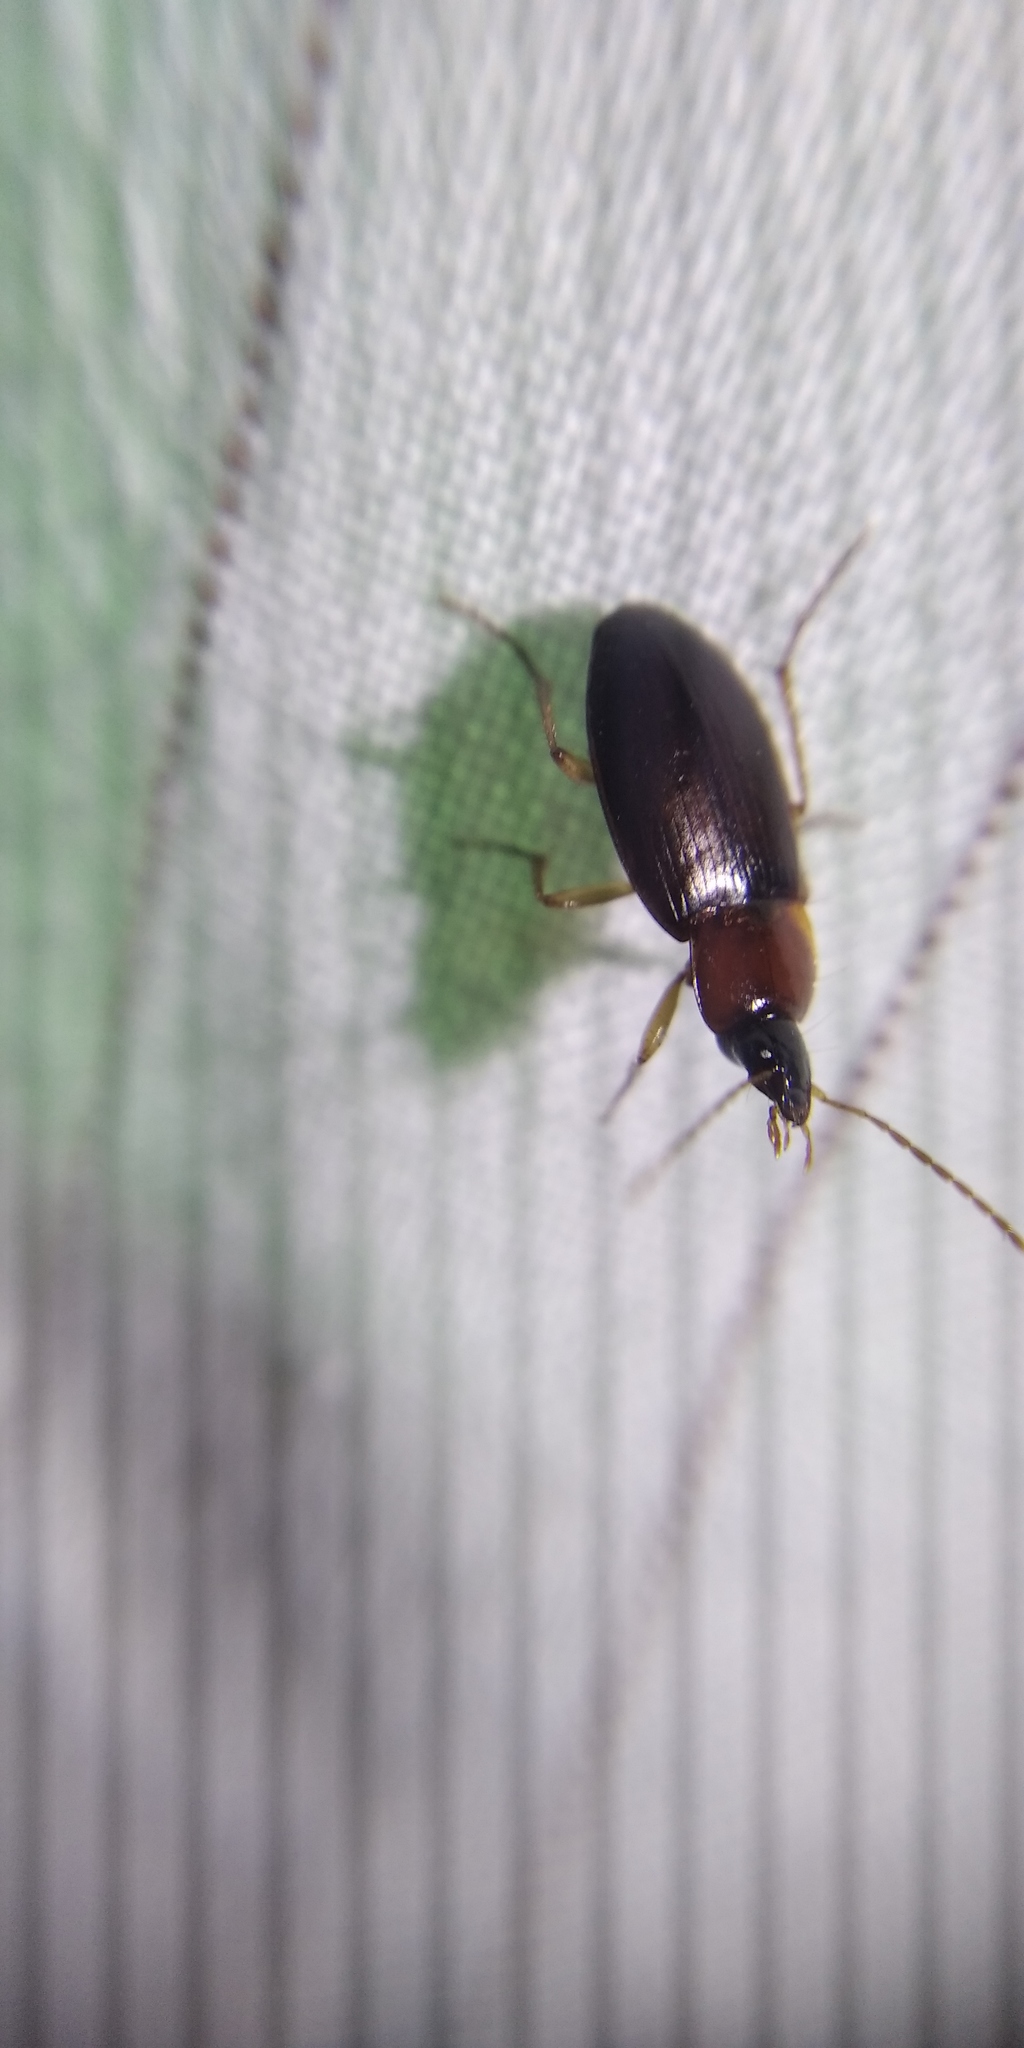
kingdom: Animalia
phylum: Arthropoda
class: Insecta
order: Coleoptera
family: Carabidae
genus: Calathus
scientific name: Calathus melanocephalus
